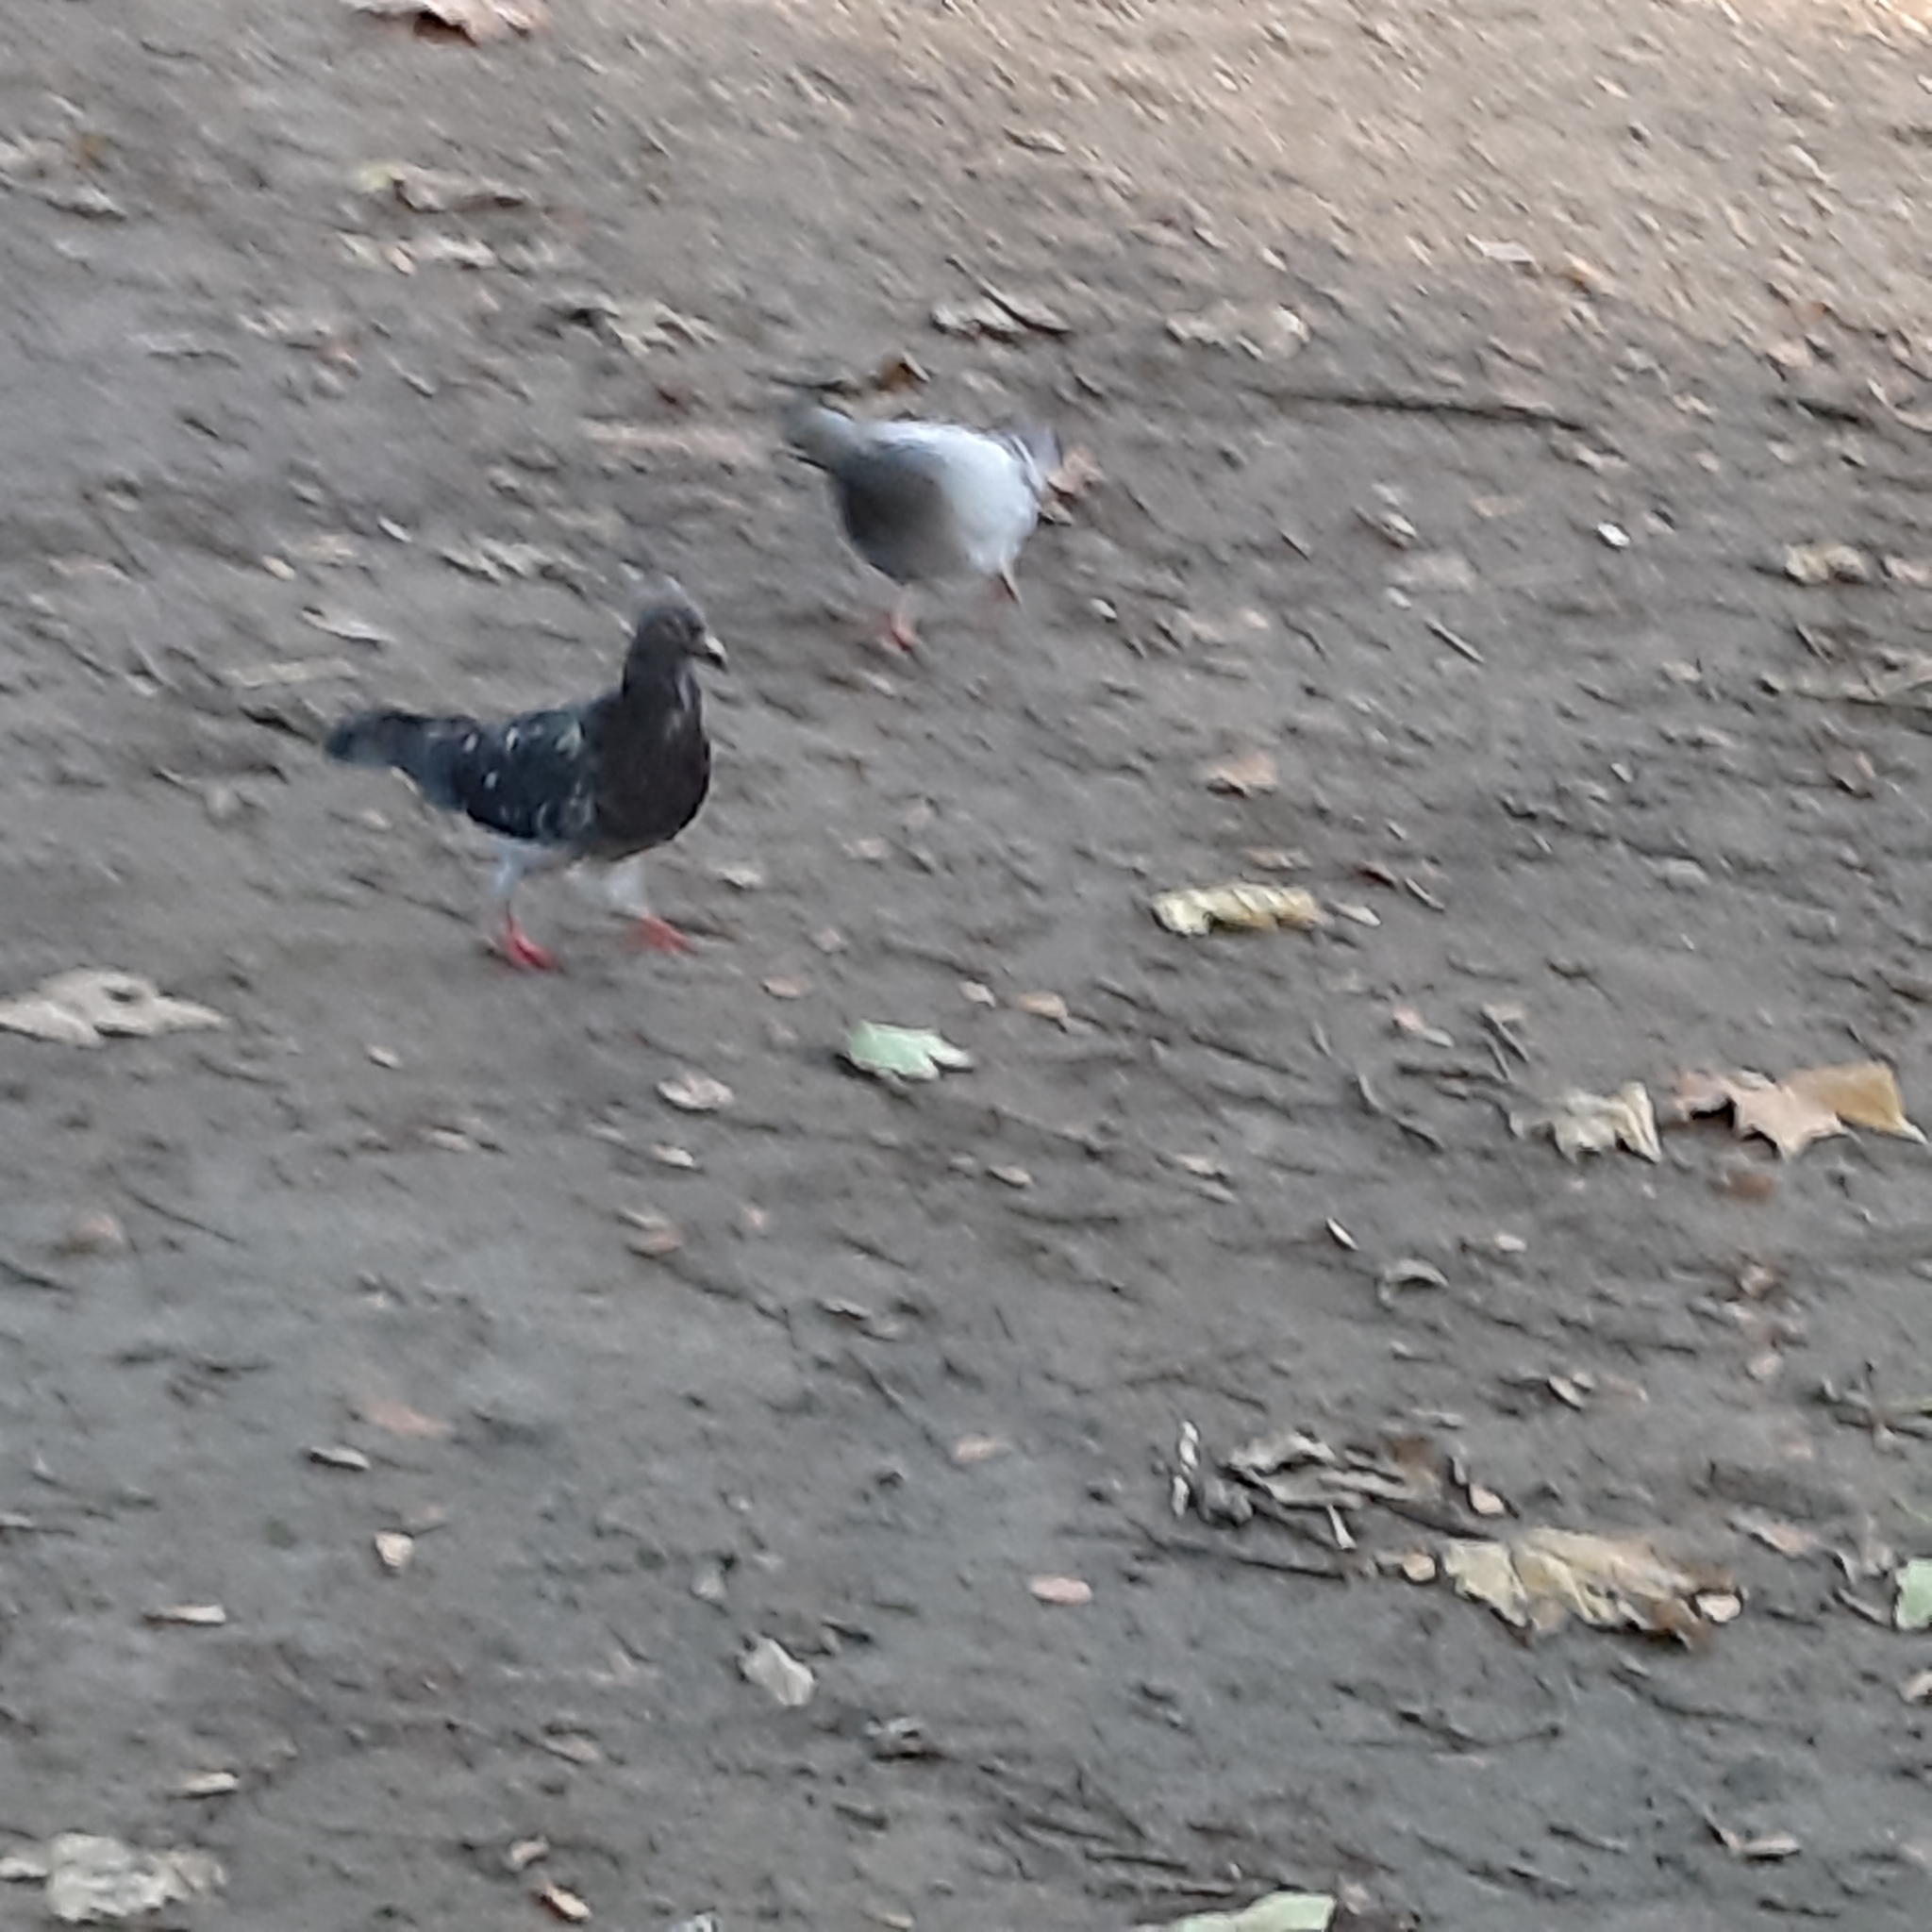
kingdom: Animalia
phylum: Chordata
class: Aves
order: Columbiformes
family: Columbidae
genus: Columba
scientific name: Columba livia
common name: Rock pigeon
